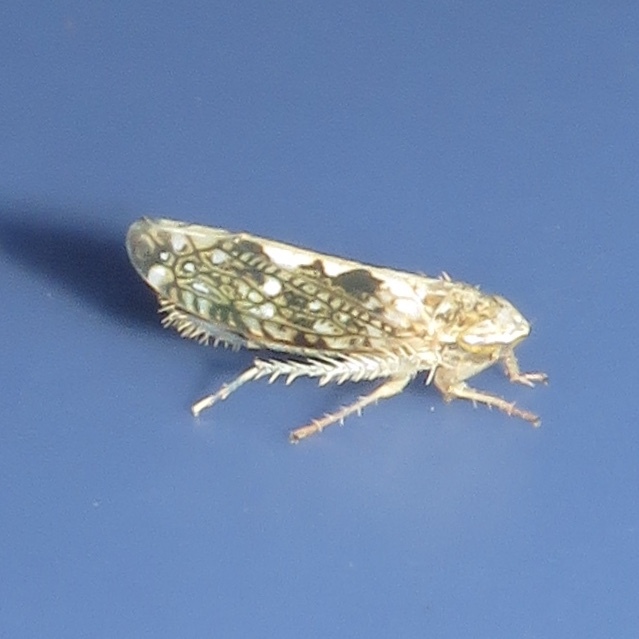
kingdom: Animalia
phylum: Arthropoda
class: Insecta
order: Hemiptera
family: Cicadellidae
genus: Prescottia
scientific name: Prescottia lobata
